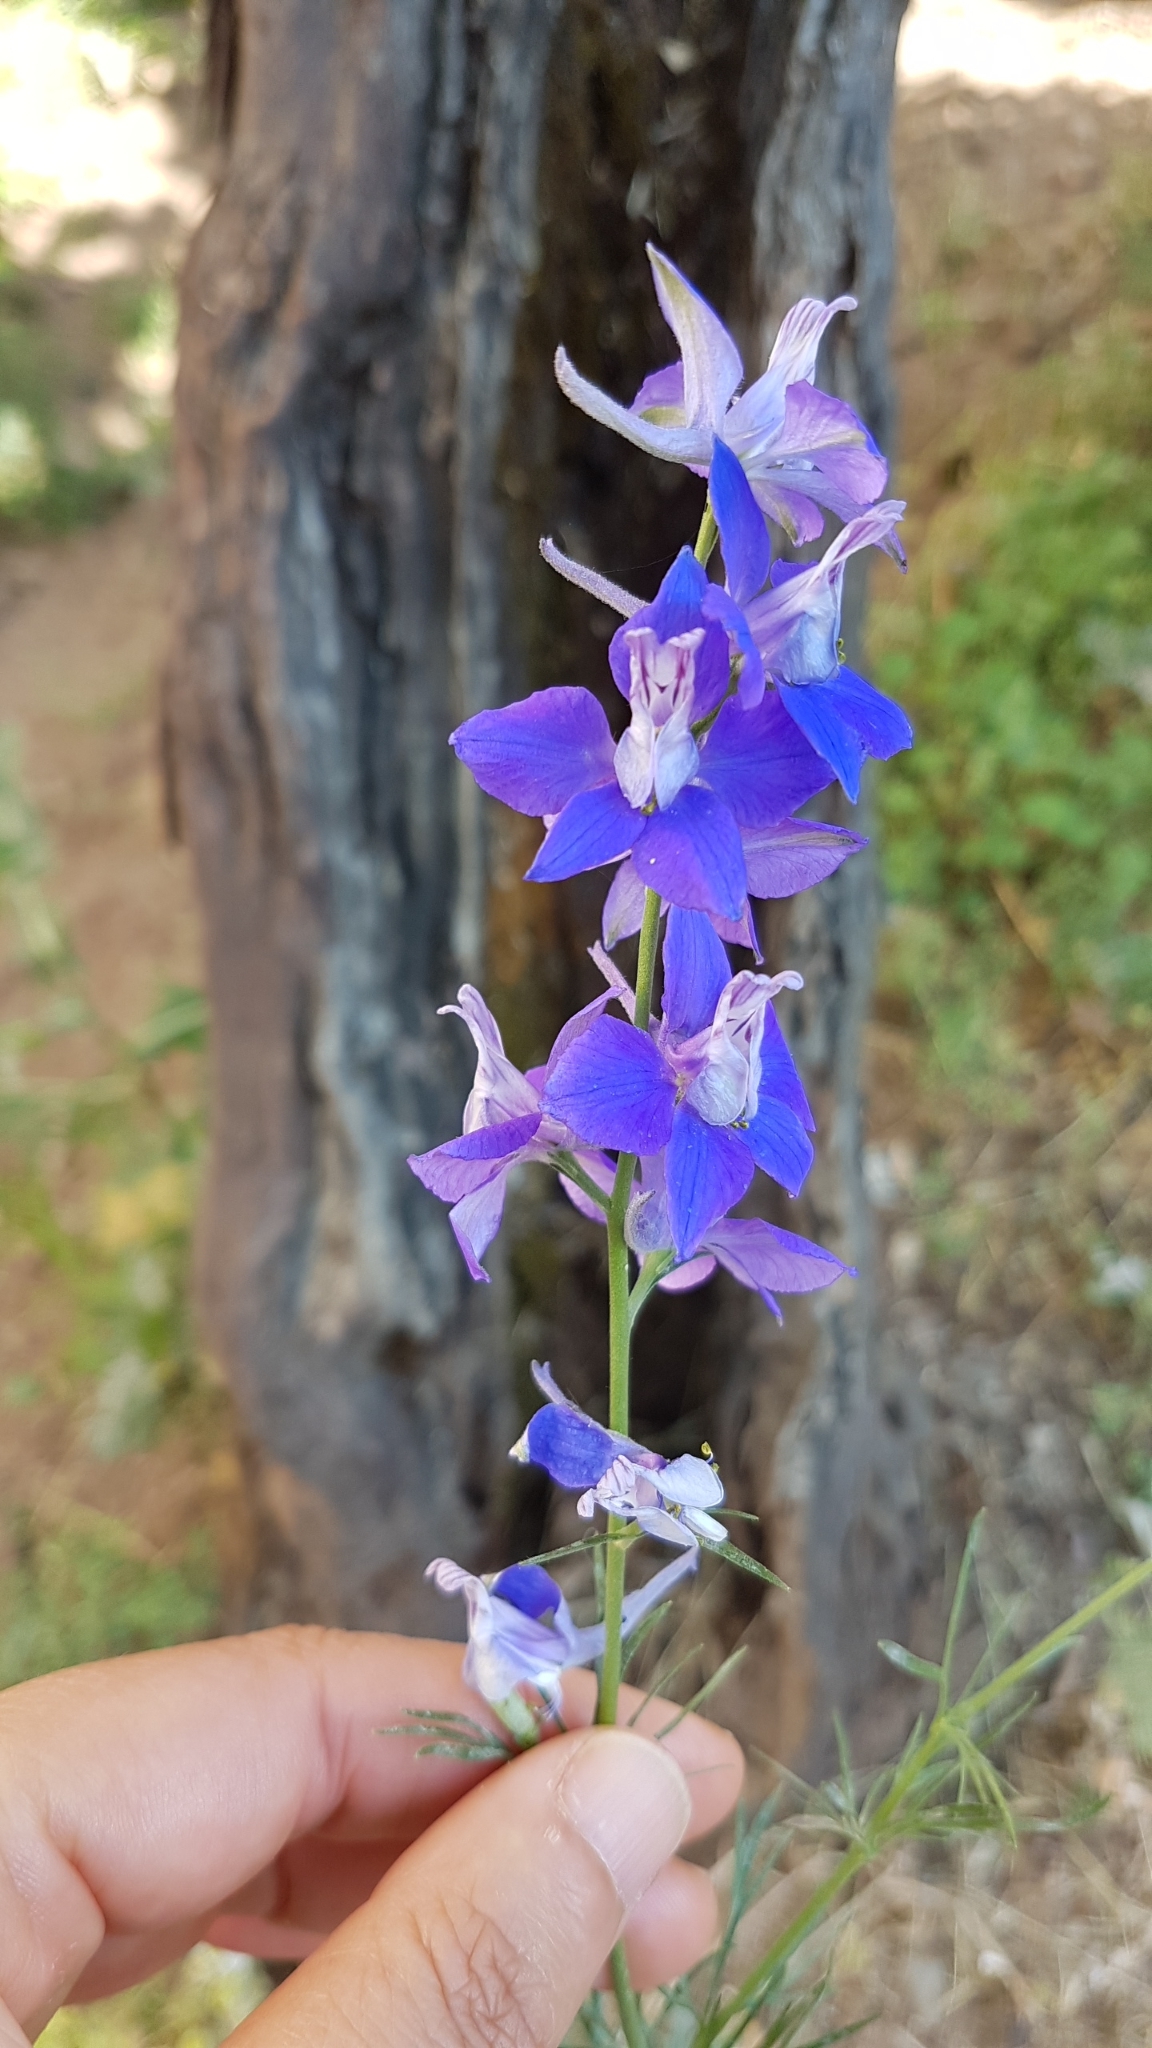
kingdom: Plantae
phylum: Tracheophyta
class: Magnoliopsida
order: Ranunculales
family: Ranunculaceae
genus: Delphinium
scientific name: Delphinium ajacis
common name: Doubtful knight's-spur
